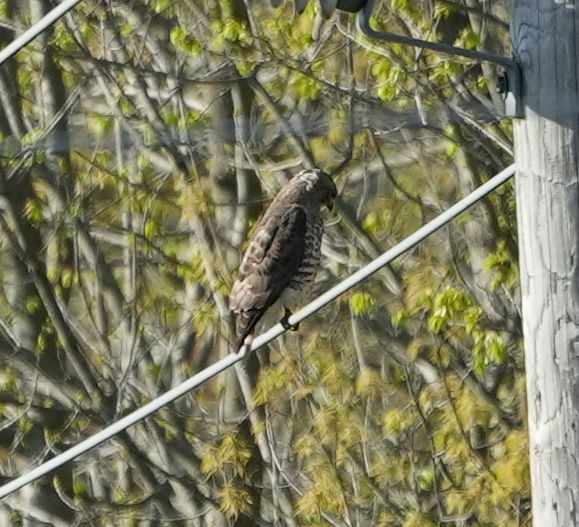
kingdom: Animalia
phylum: Chordata
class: Aves
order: Accipitriformes
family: Accipitridae
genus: Buteo
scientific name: Buteo platypterus
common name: Broad-winged hawk
